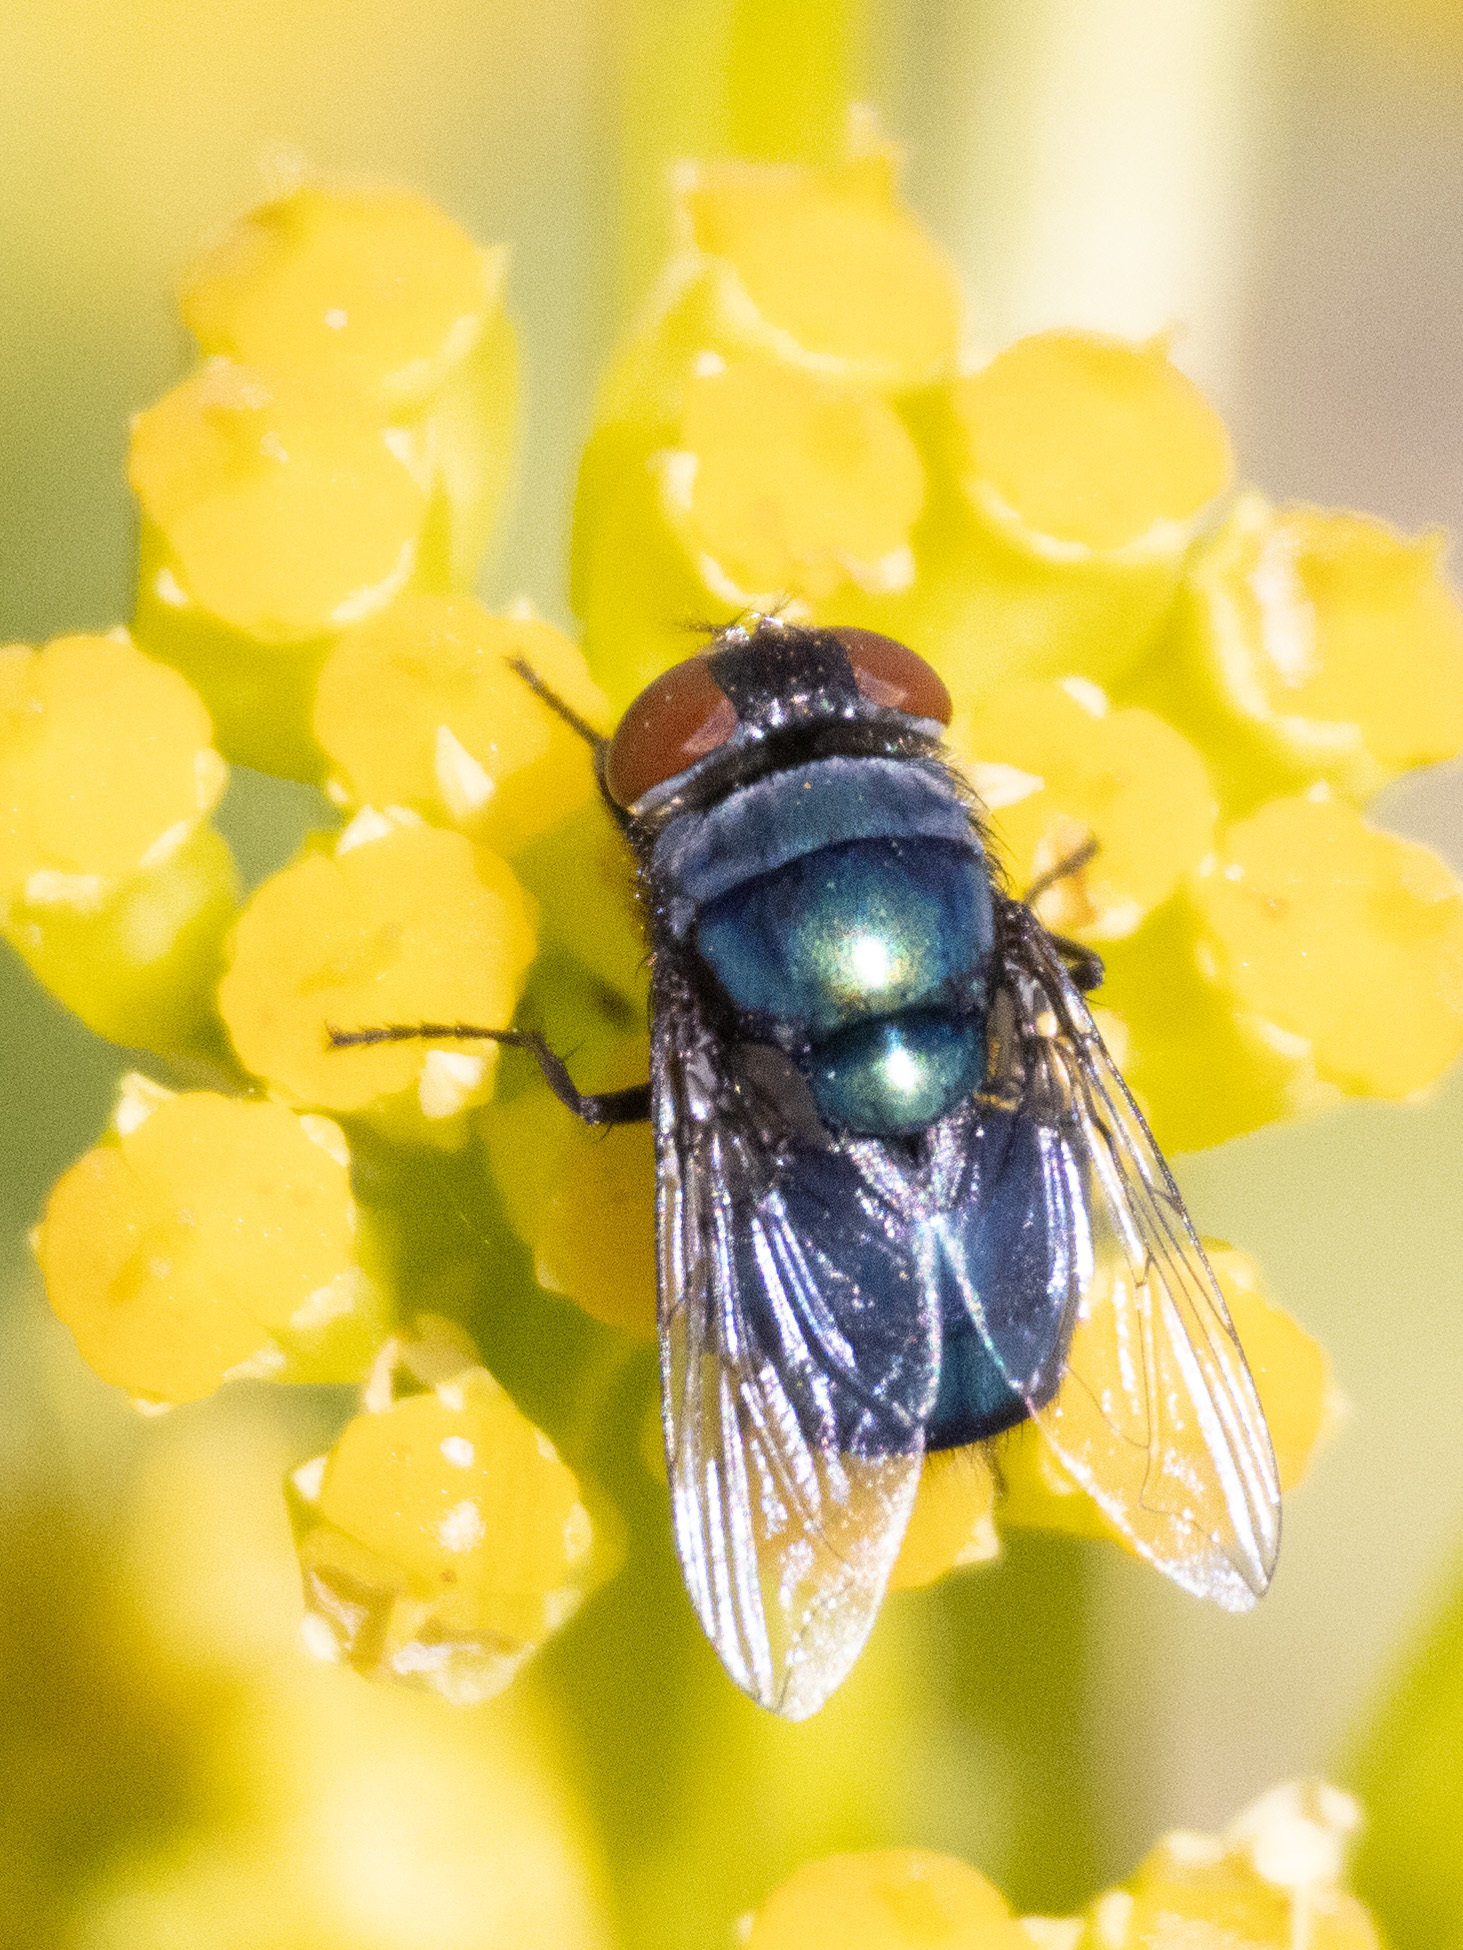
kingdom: Animalia
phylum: Arthropoda
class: Insecta
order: Diptera
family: Calliphoridae
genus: Chrysomya
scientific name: Chrysomya megacephala
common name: Blow fly
